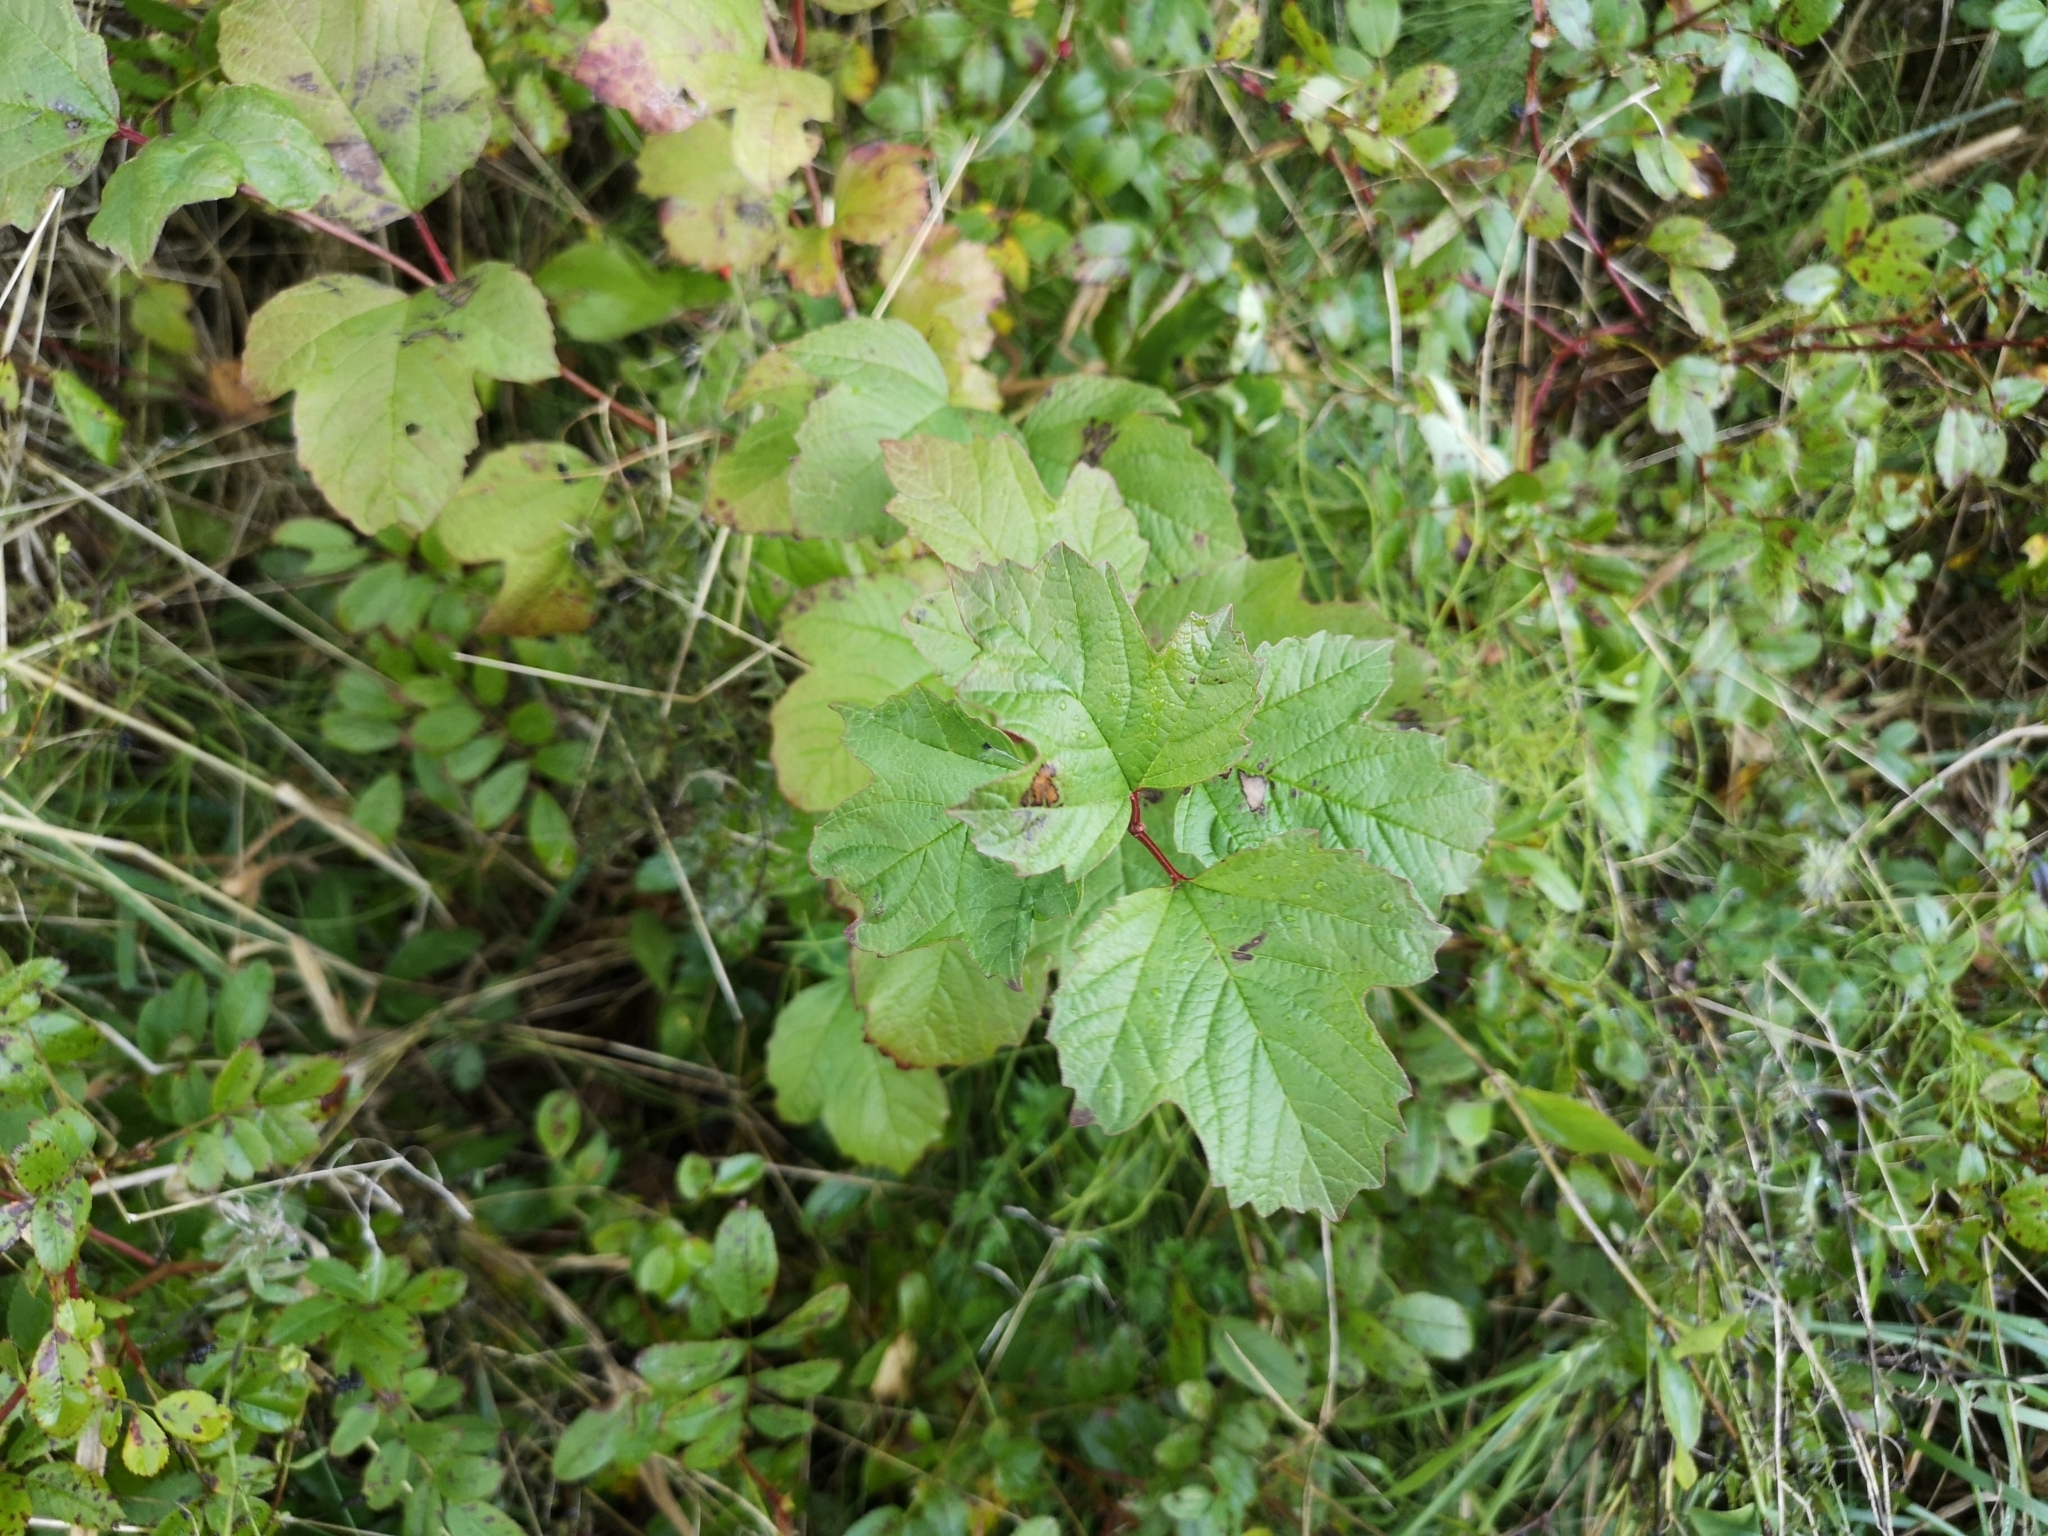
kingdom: Plantae
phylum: Tracheophyta
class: Magnoliopsida
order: Dipsacales
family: Viburnaceae
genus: Viburnum
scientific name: Viburnum opulus
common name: Guelder-rose
